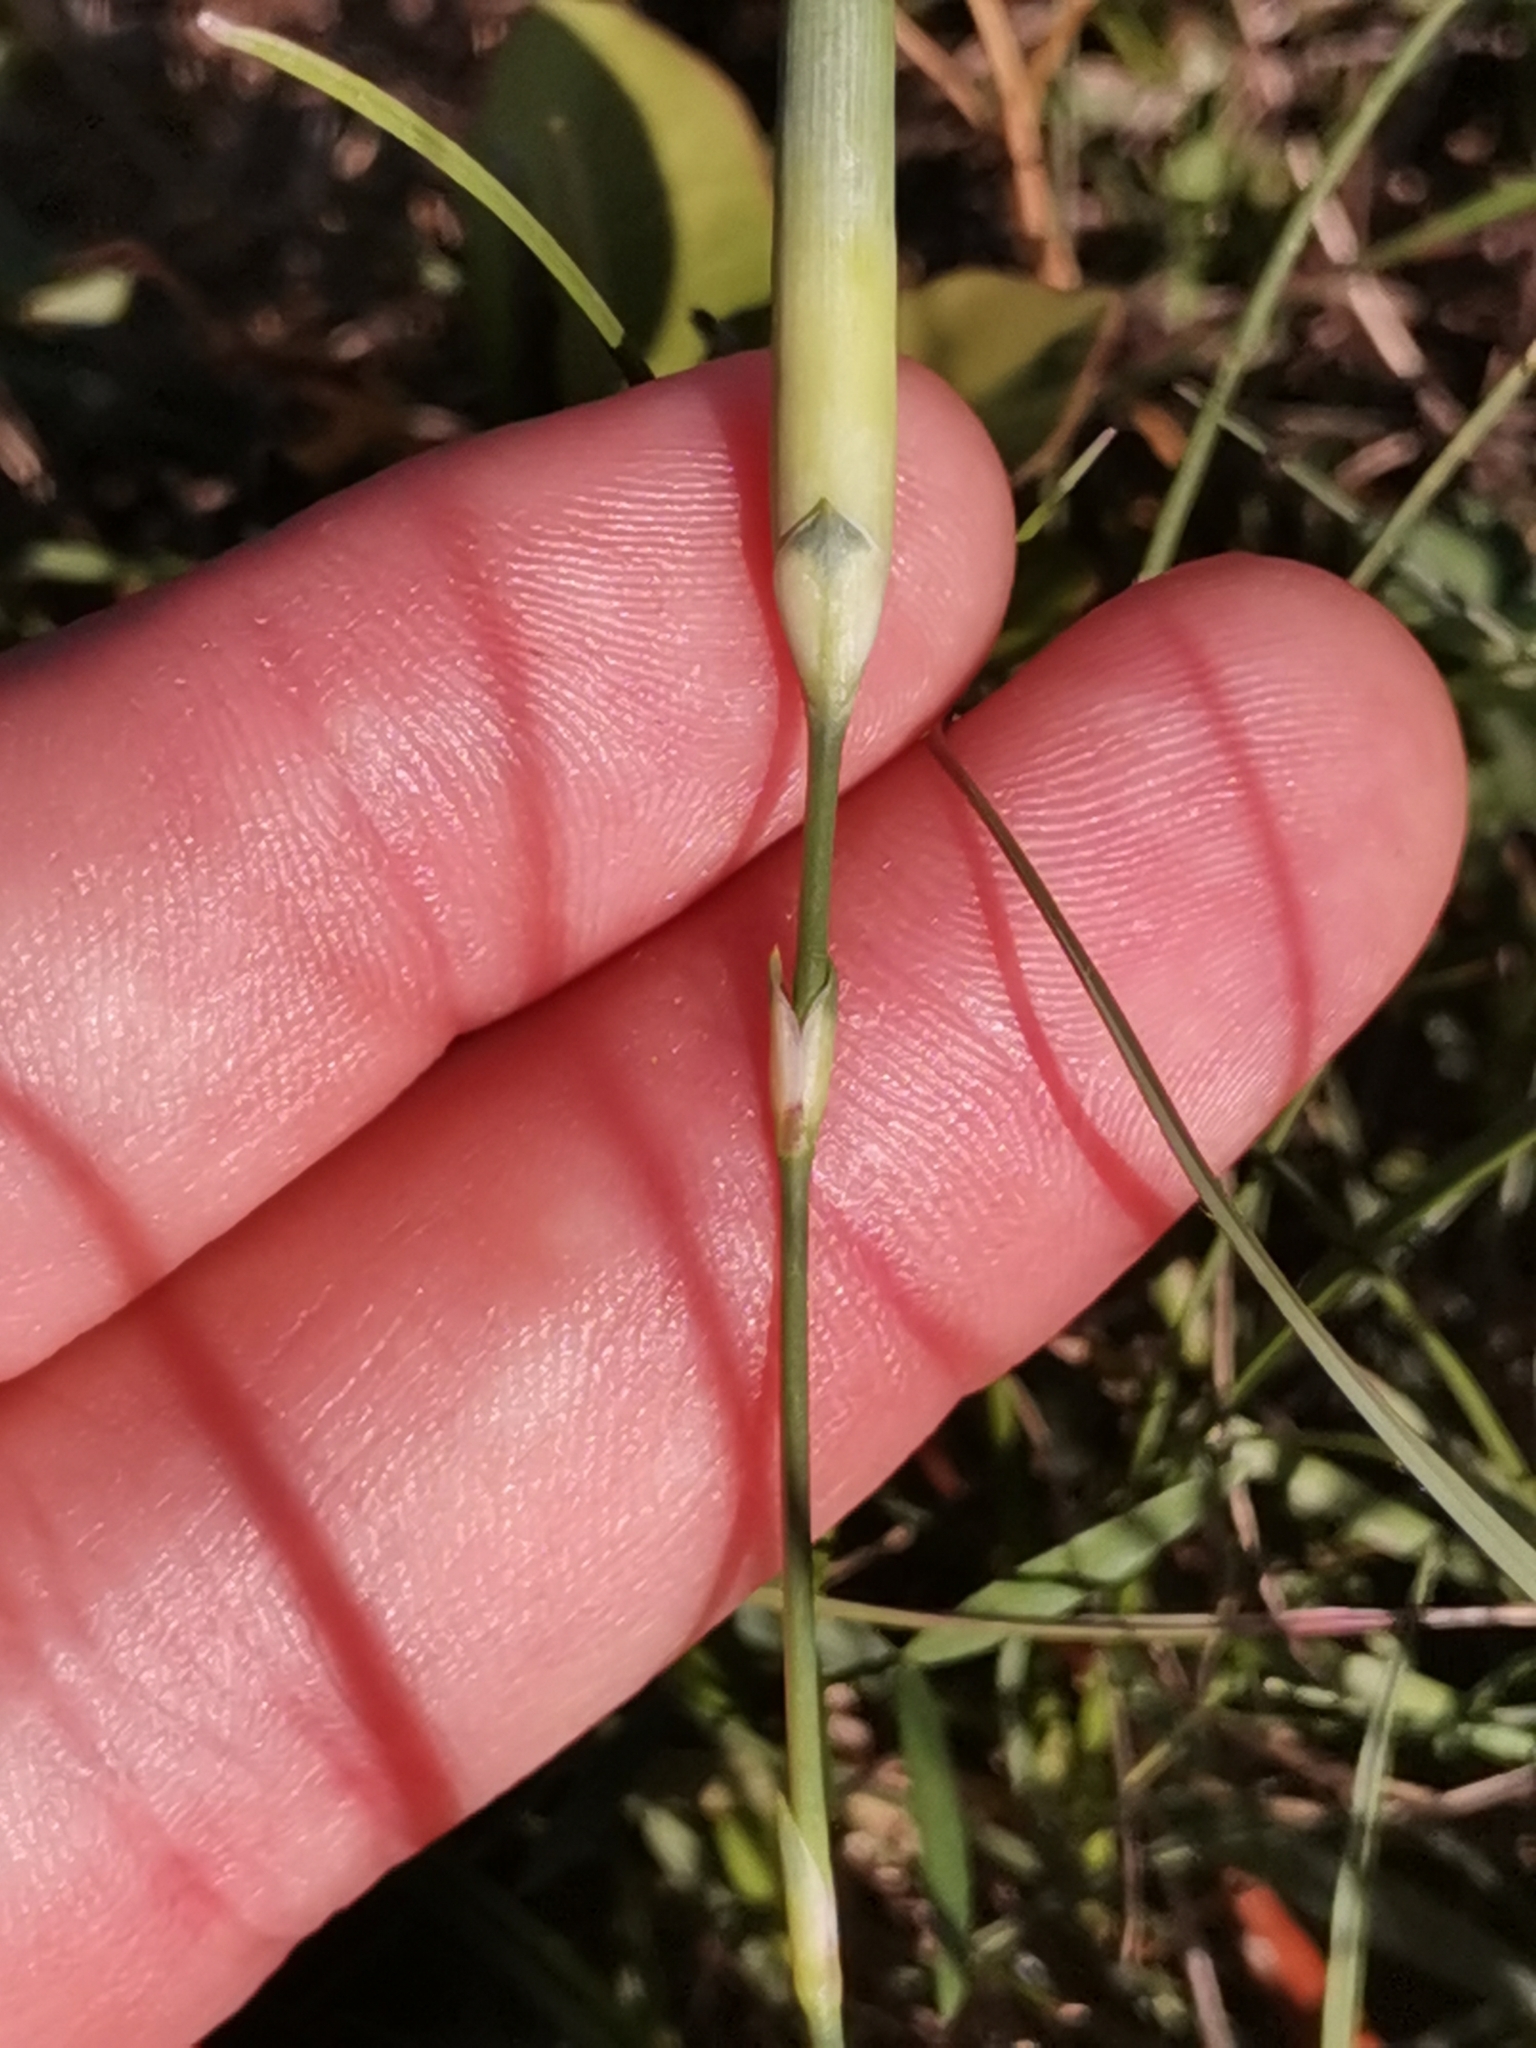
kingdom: Plantae
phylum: Tracheophyta
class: Magnoliopsida
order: Caryophyllales
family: Caryophyllaceae
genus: Dianthus
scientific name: Dianthus sylvestris
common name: Wood pink
